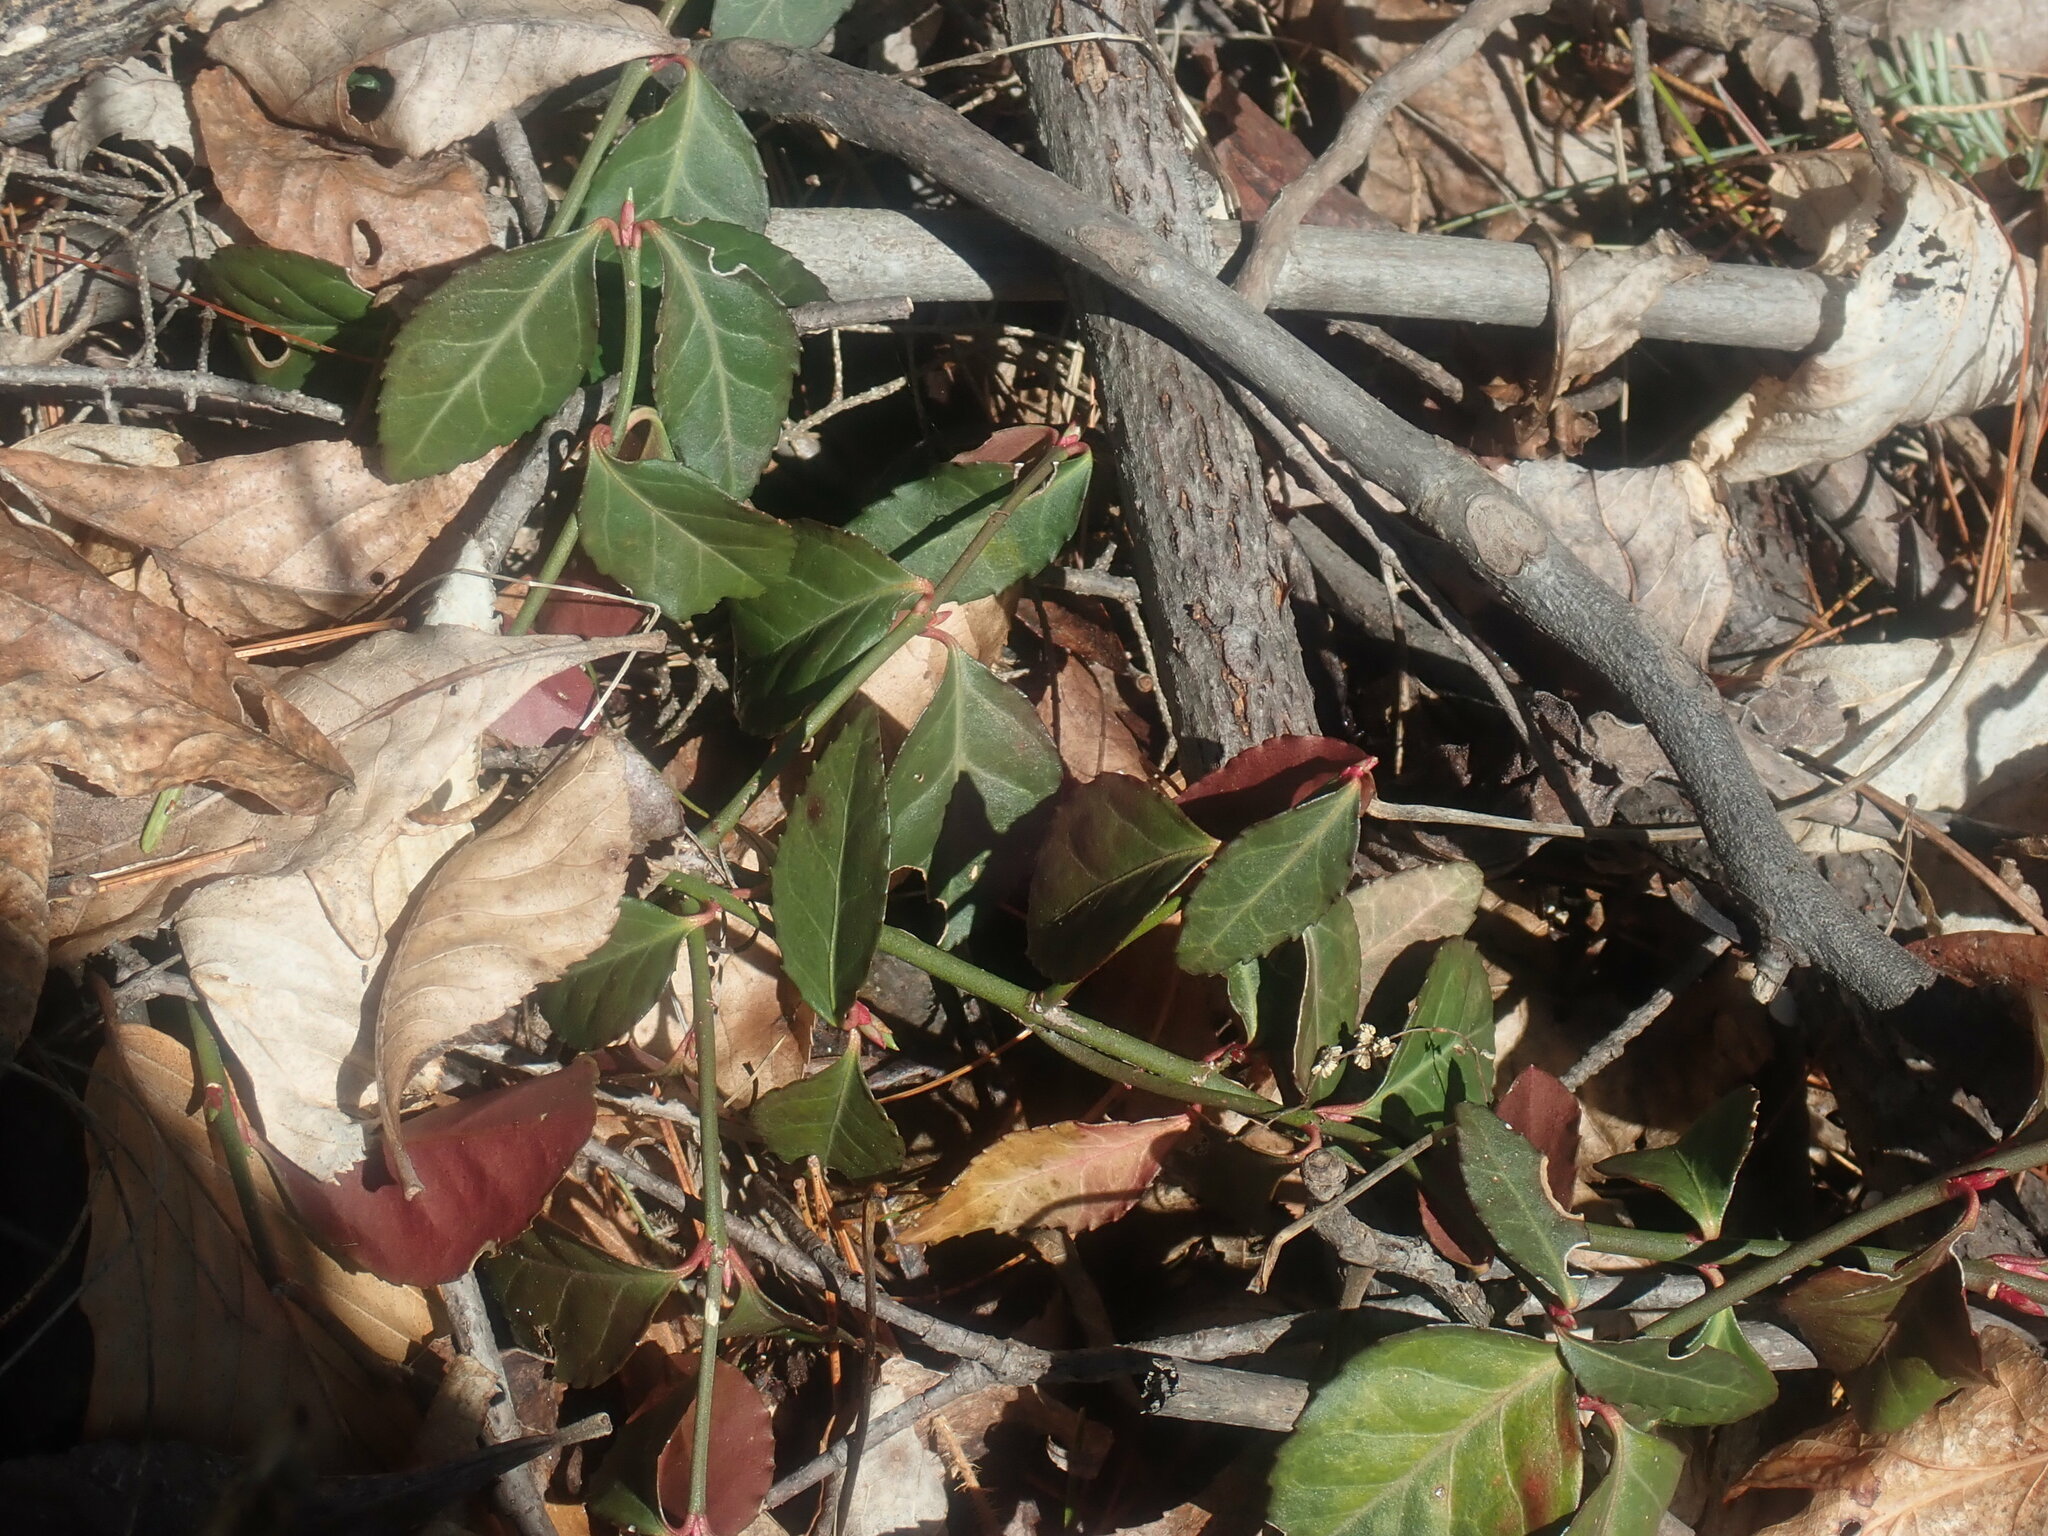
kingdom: Plantae
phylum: Tracheophyta
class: Magnoliopsida
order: Celastrales
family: Celastraceae
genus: Euonymus
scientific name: Euonymus fortunei
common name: Climbing euonymus
